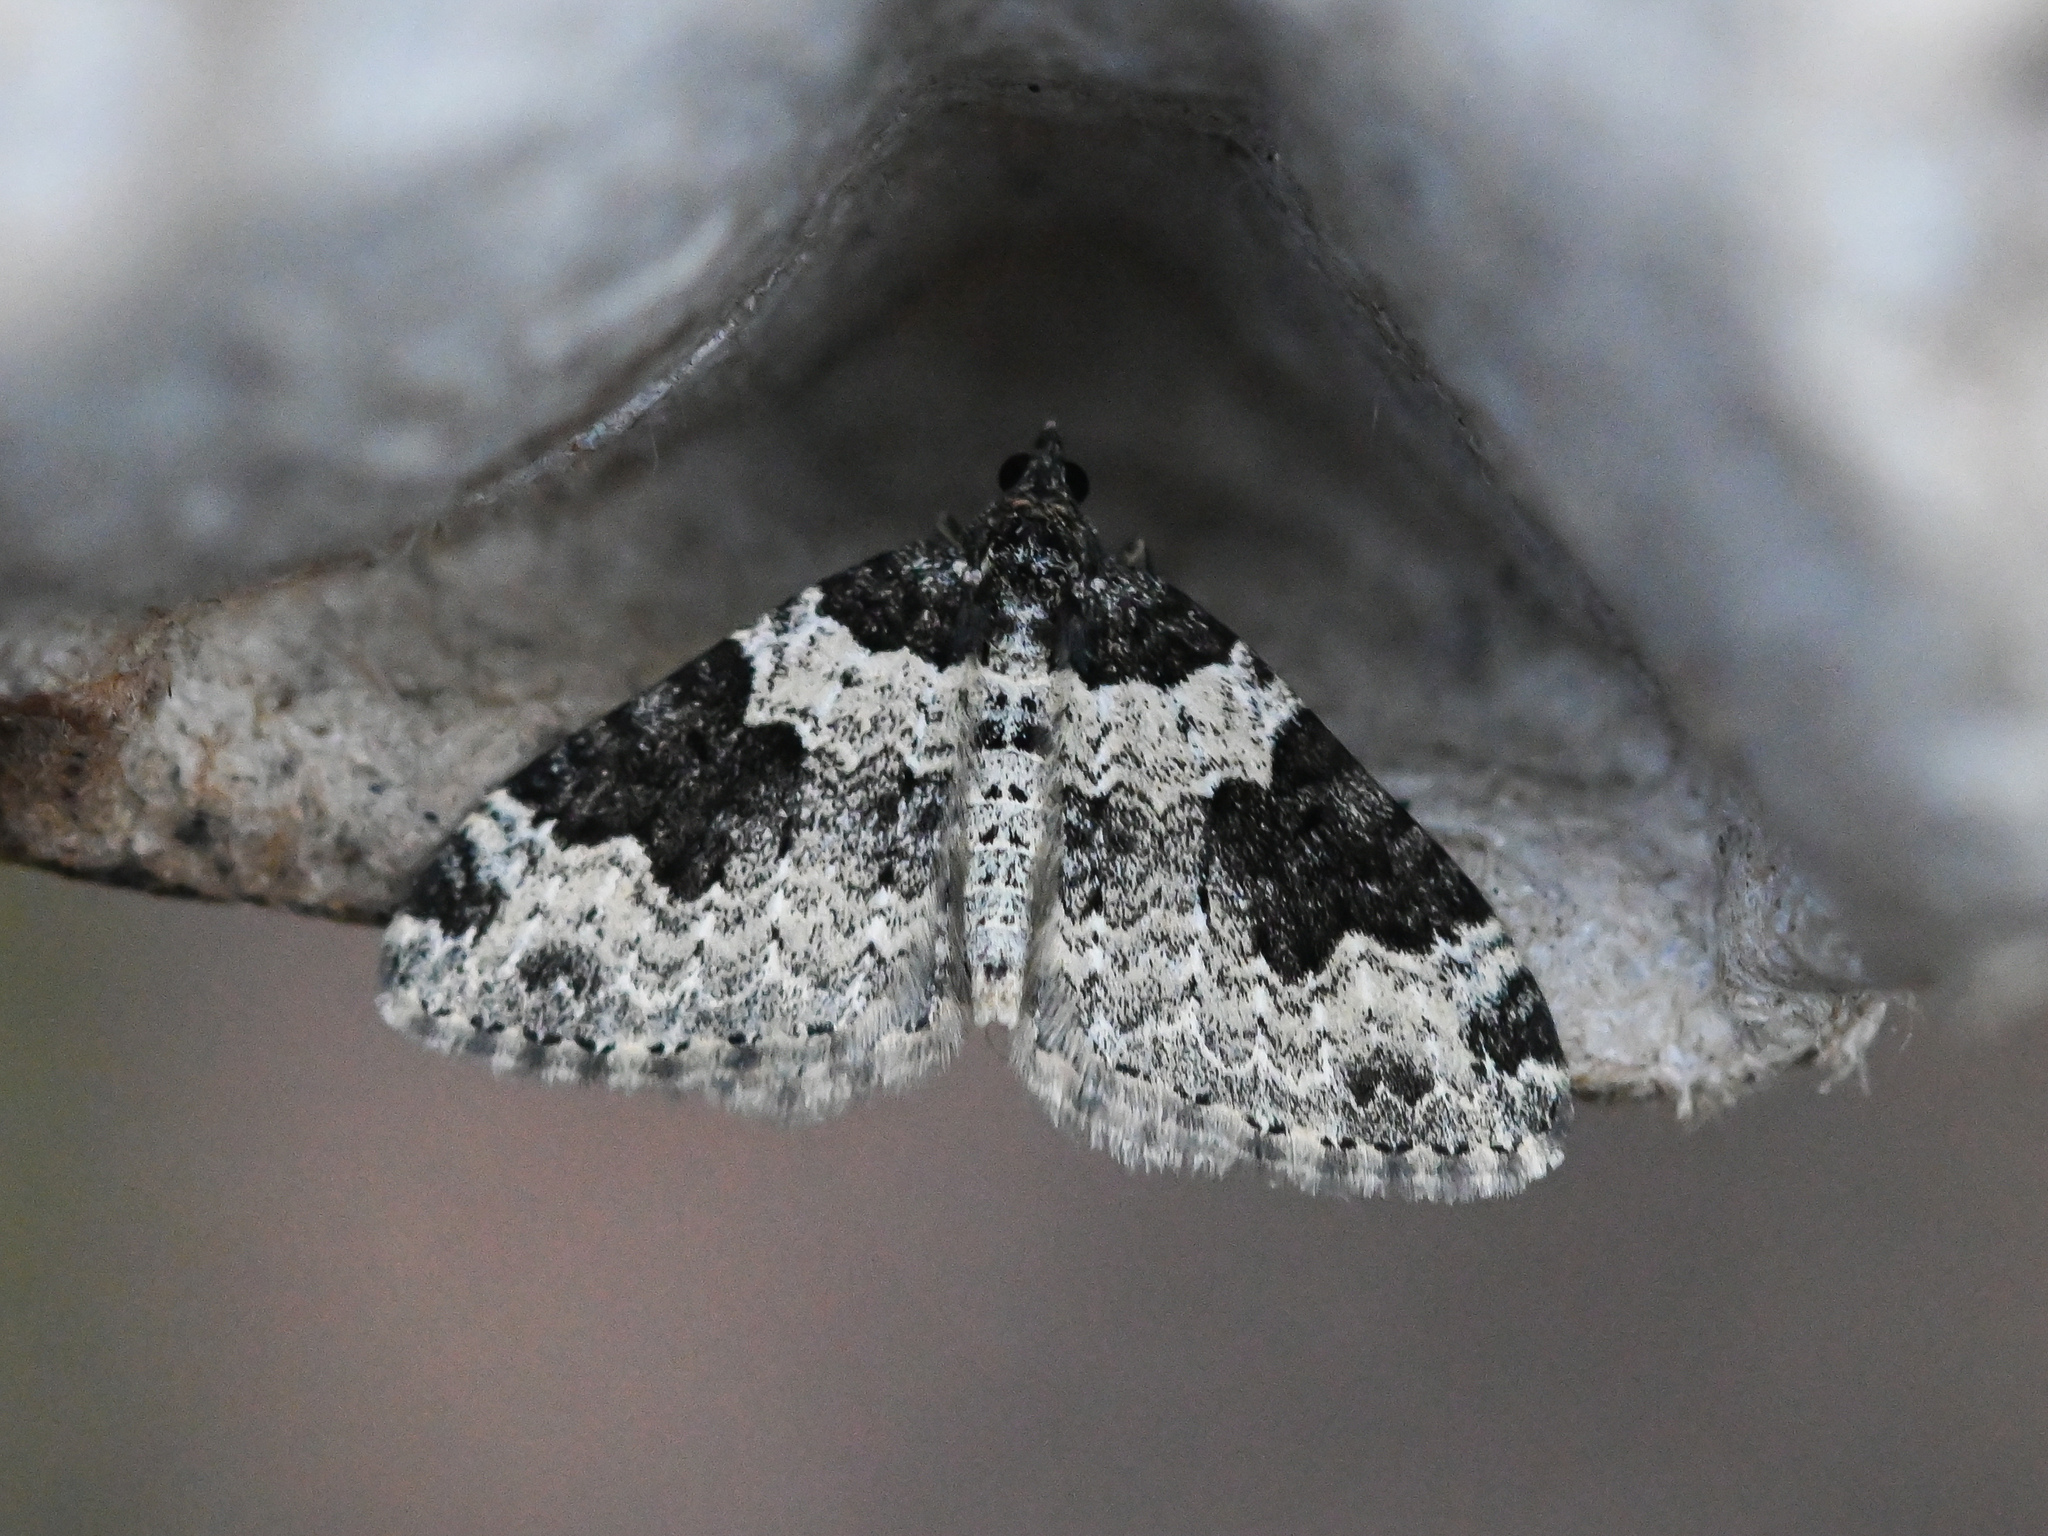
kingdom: Animalia
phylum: Arthropoda
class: Insecta
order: Lepidoptera
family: Geometridae
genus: Xanthorhoe
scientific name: Xanthorhoe fluctuata
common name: Garden carpet
